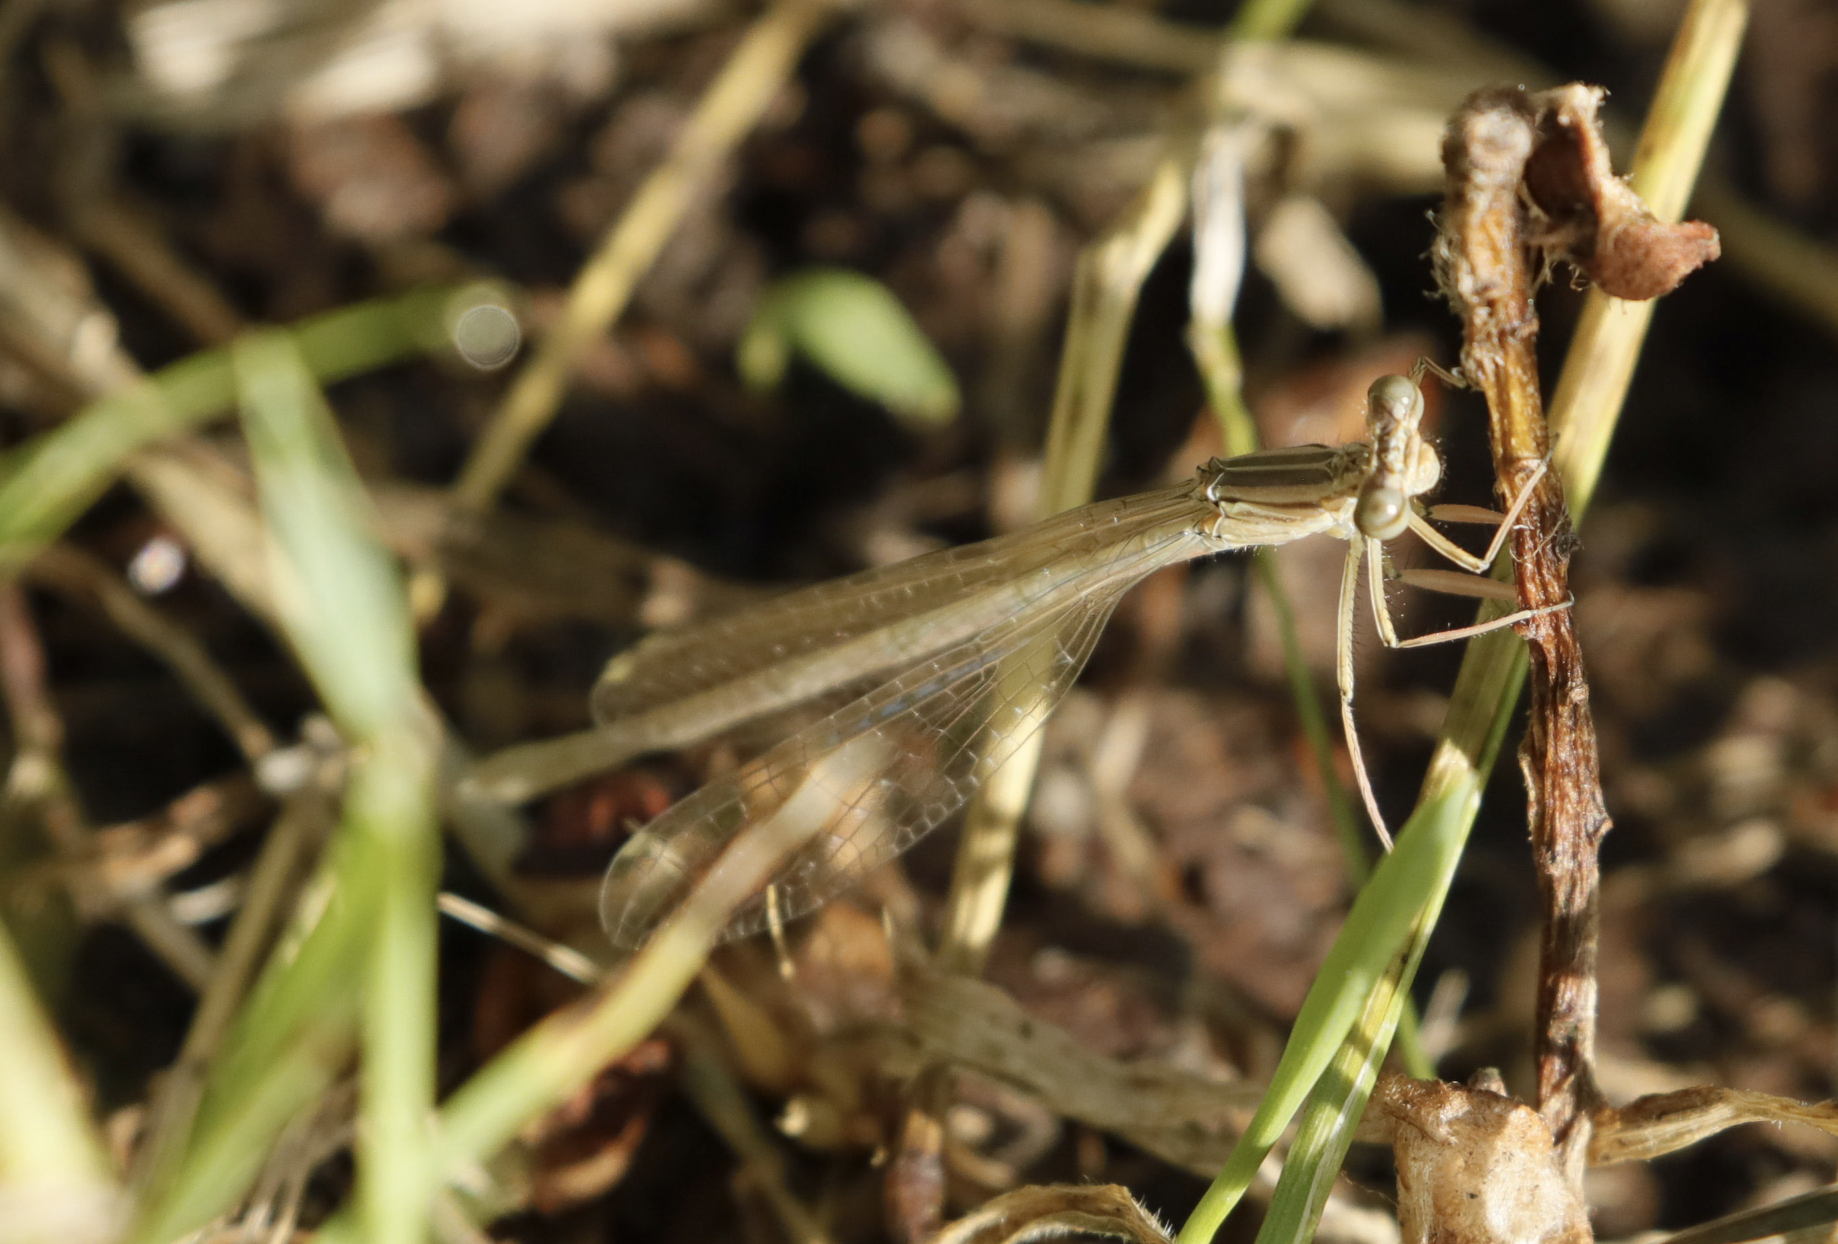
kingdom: Animalia
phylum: Arthropoda
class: Insecta
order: Odonata
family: Platycnemididae
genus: Platycnemis
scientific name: Platycnemis pennipes
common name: White-legged damselfly
